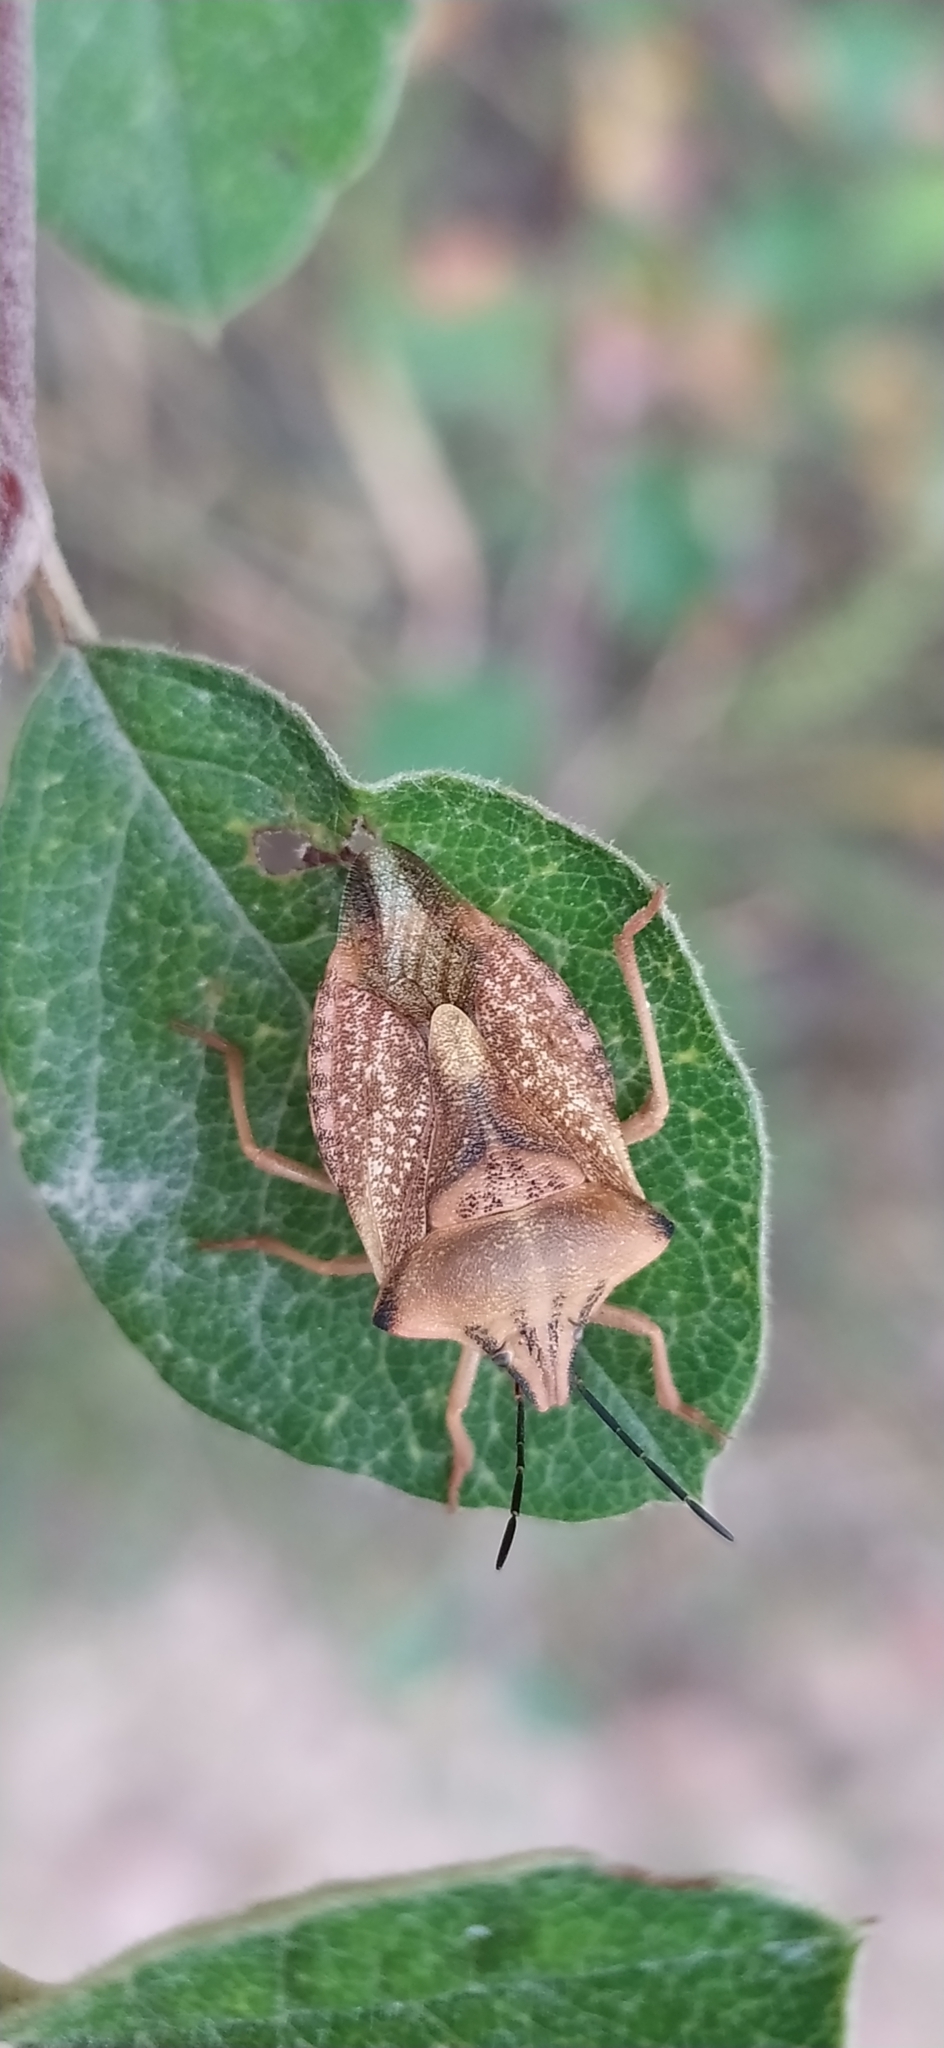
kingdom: Animalia
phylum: Arthropoda
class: Insecta
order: Hemiptera
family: Pentatomidae
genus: Carpocoris
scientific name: Carpocoris coreanus
